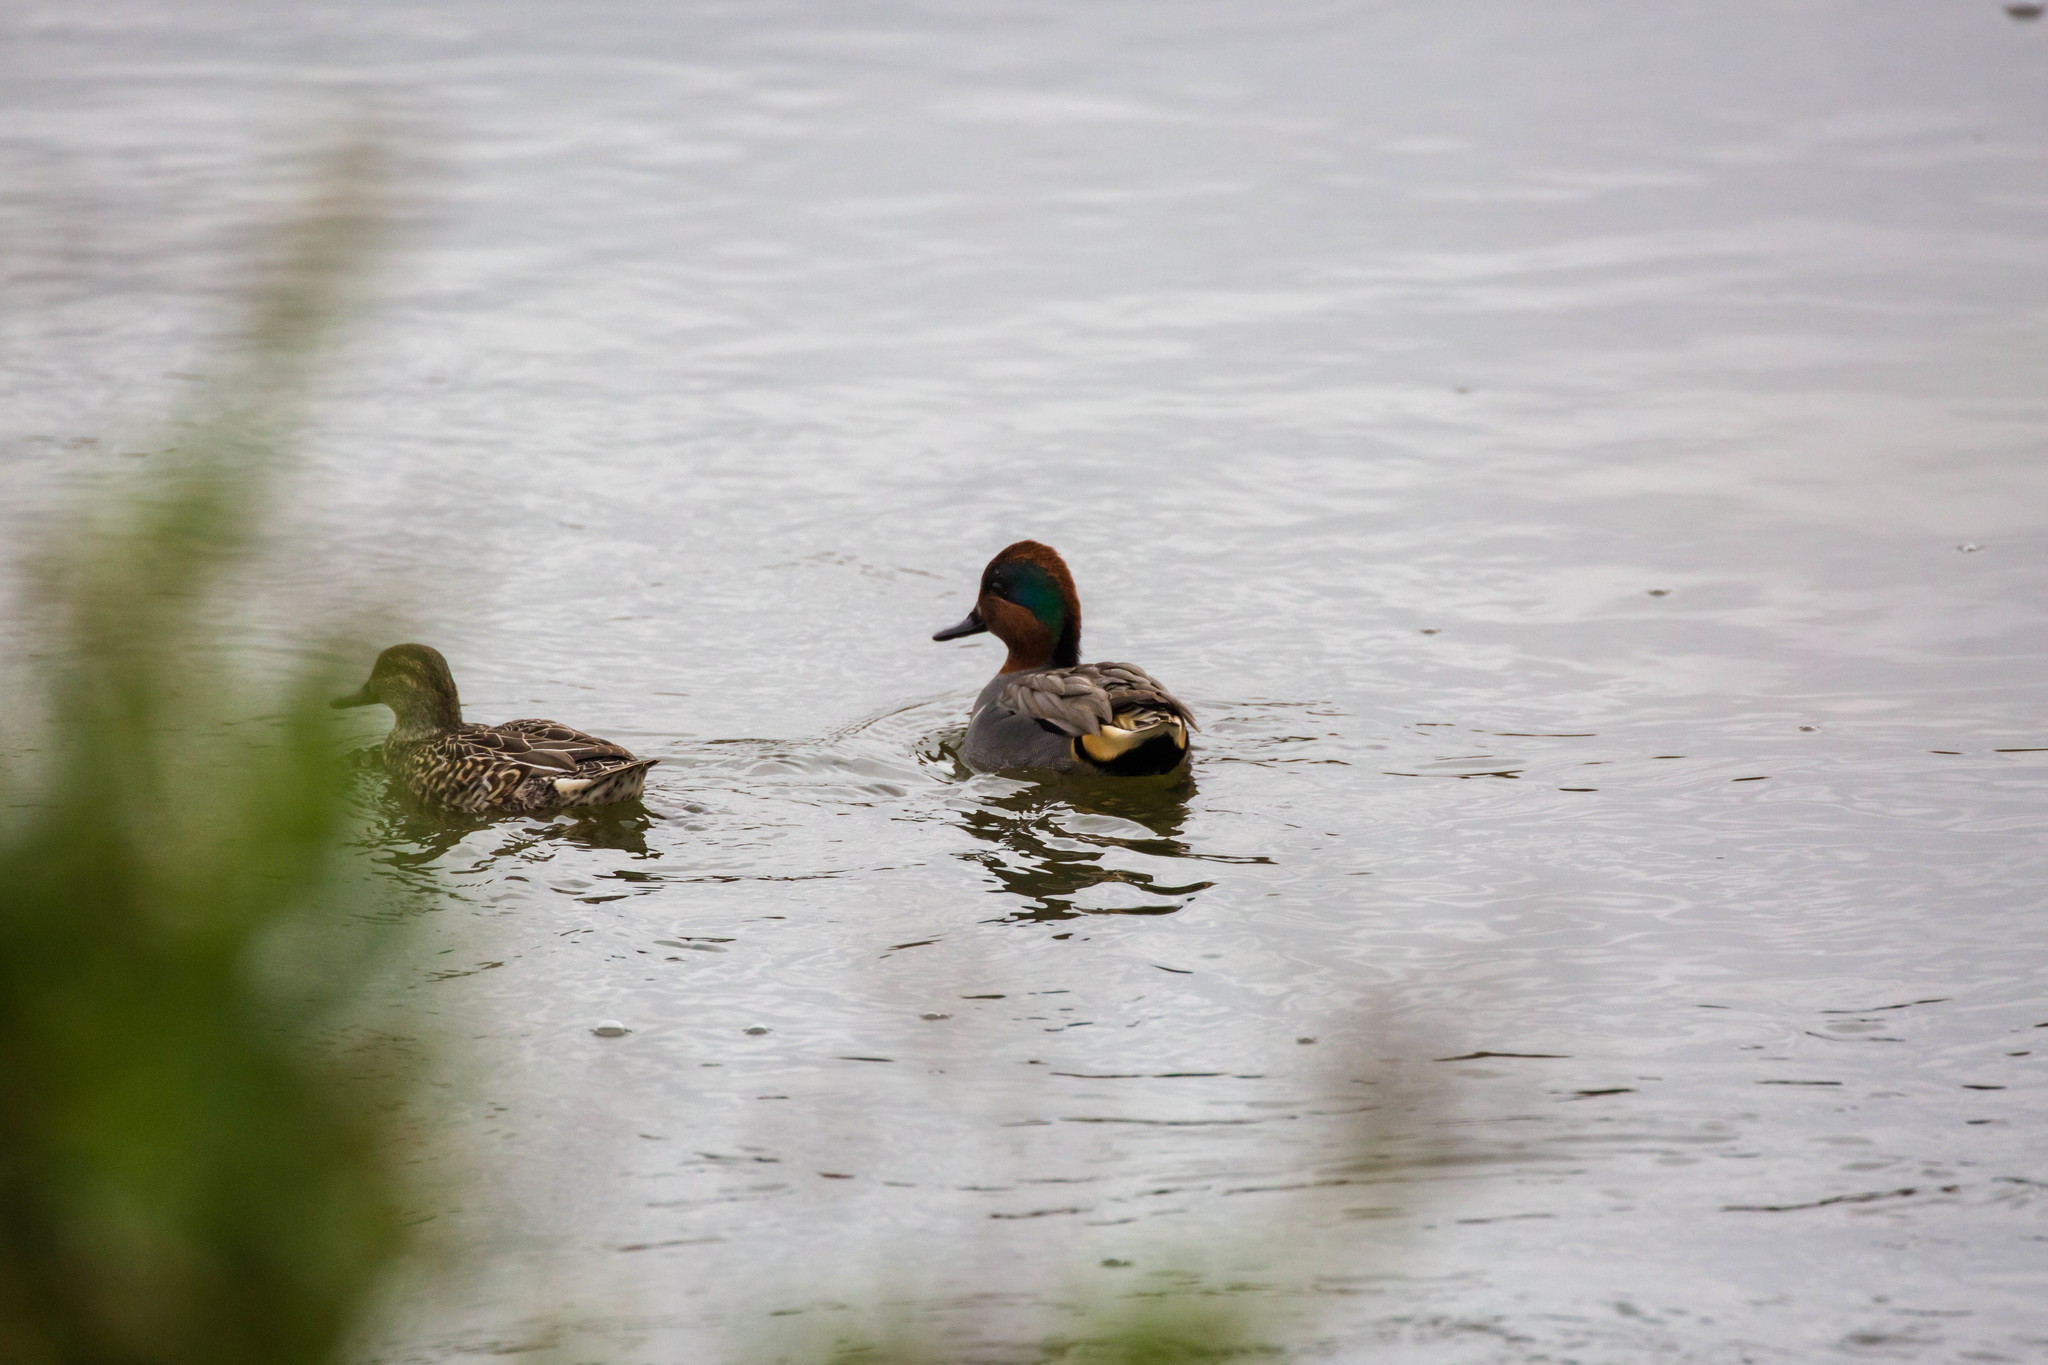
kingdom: Animalia
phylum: Chordata
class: Aves
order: Anseriformes
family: Anatidae
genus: Anas
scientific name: Anas crecca
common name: Eurasian teal
